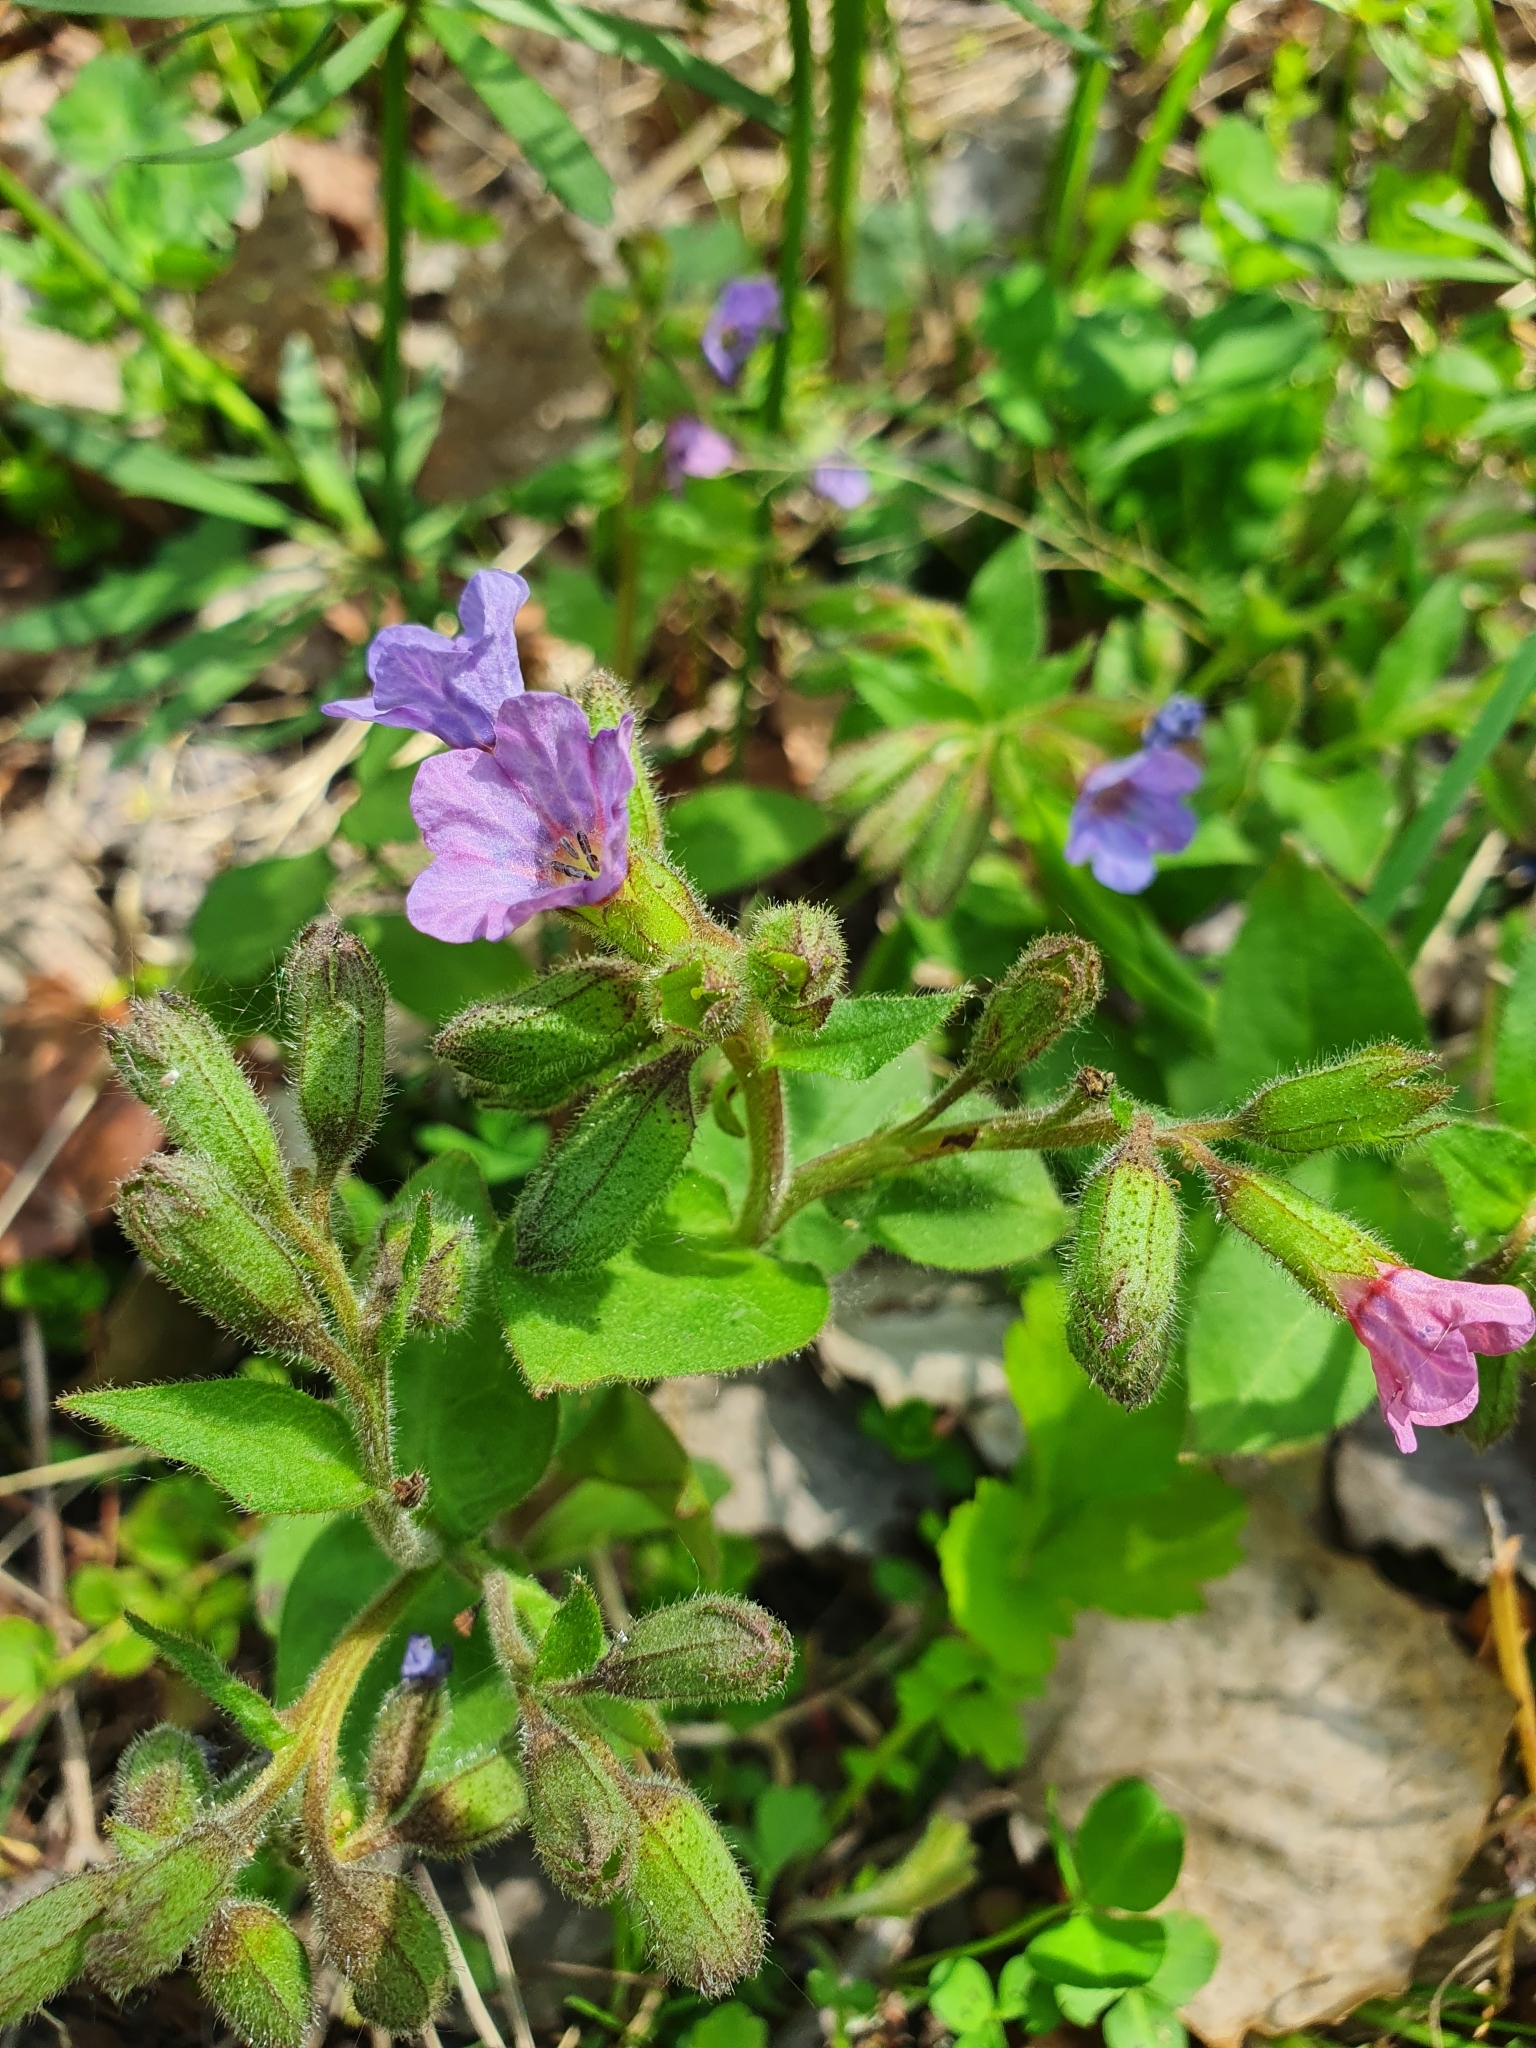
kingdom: Plantae
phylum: Tracheophyta
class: Magnoliopsida
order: Boraginales
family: Boraginaceae
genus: Pulmonaria
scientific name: Pulmonaria obscura
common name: Suffolk lungwort
